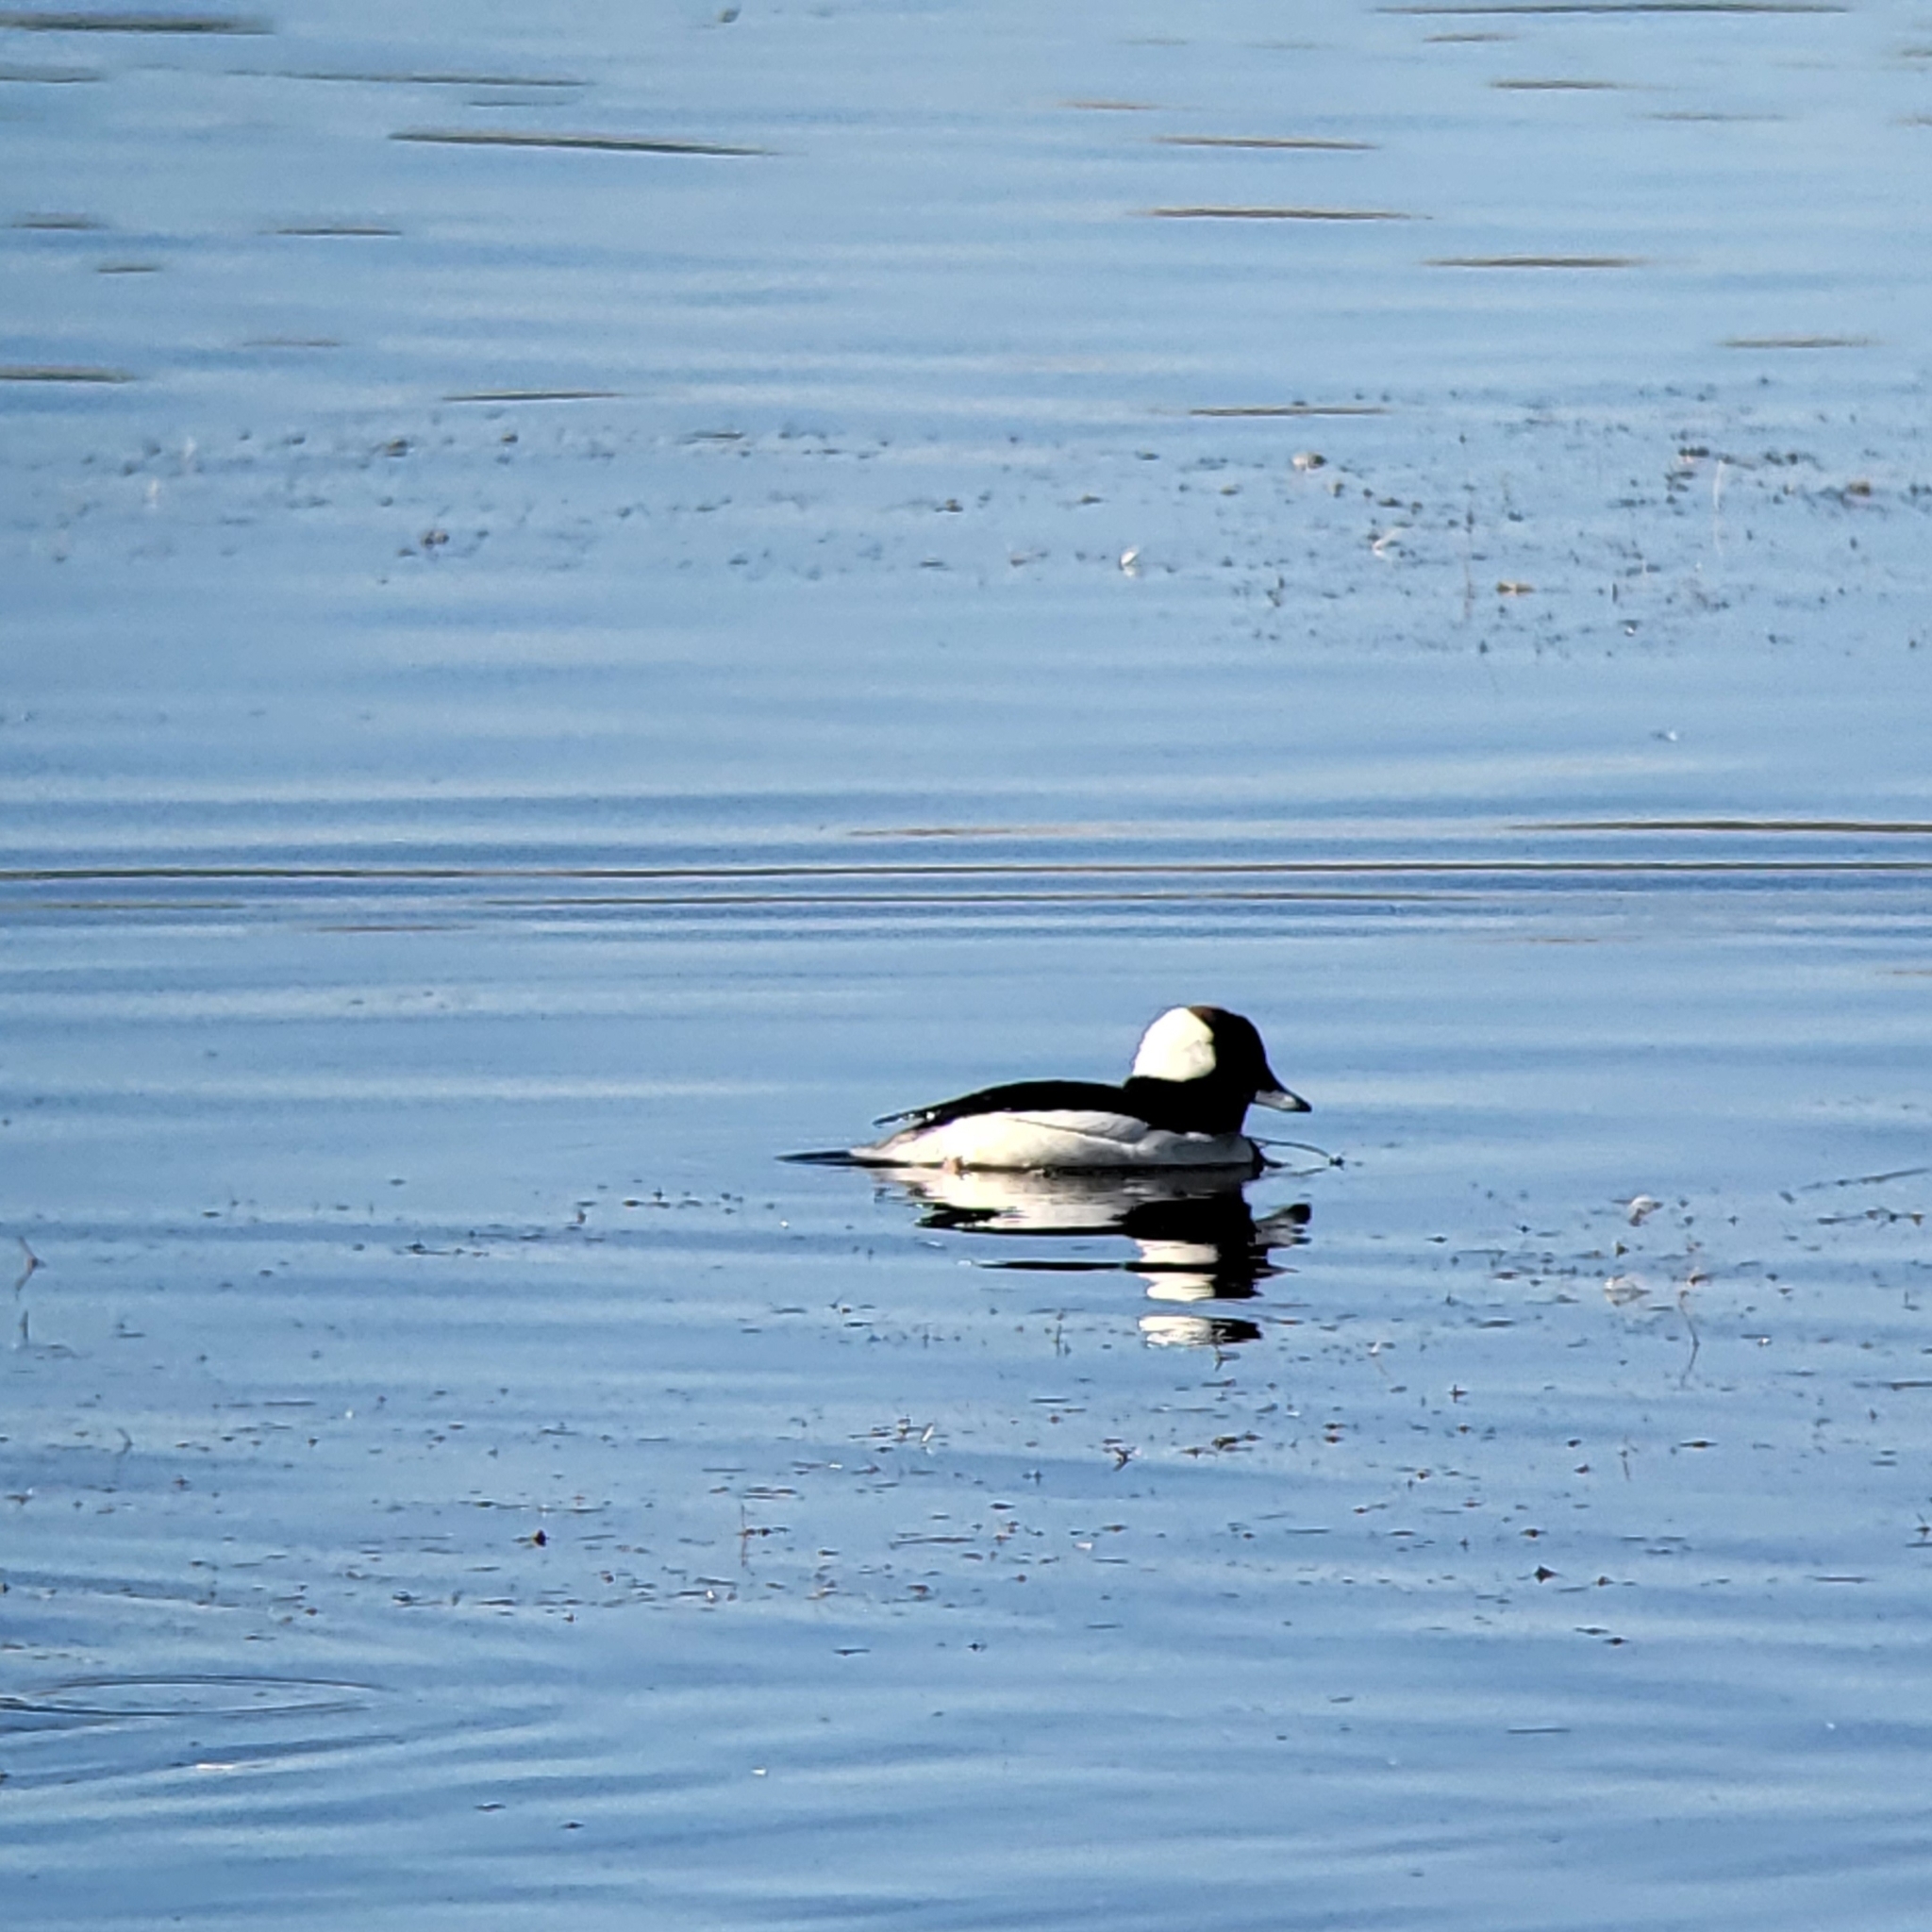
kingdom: Animalia
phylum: Chordata
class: Aves
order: Anseriformes
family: Anatidae
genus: Bucephala
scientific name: Bucephala albeola
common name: Bufflehead
